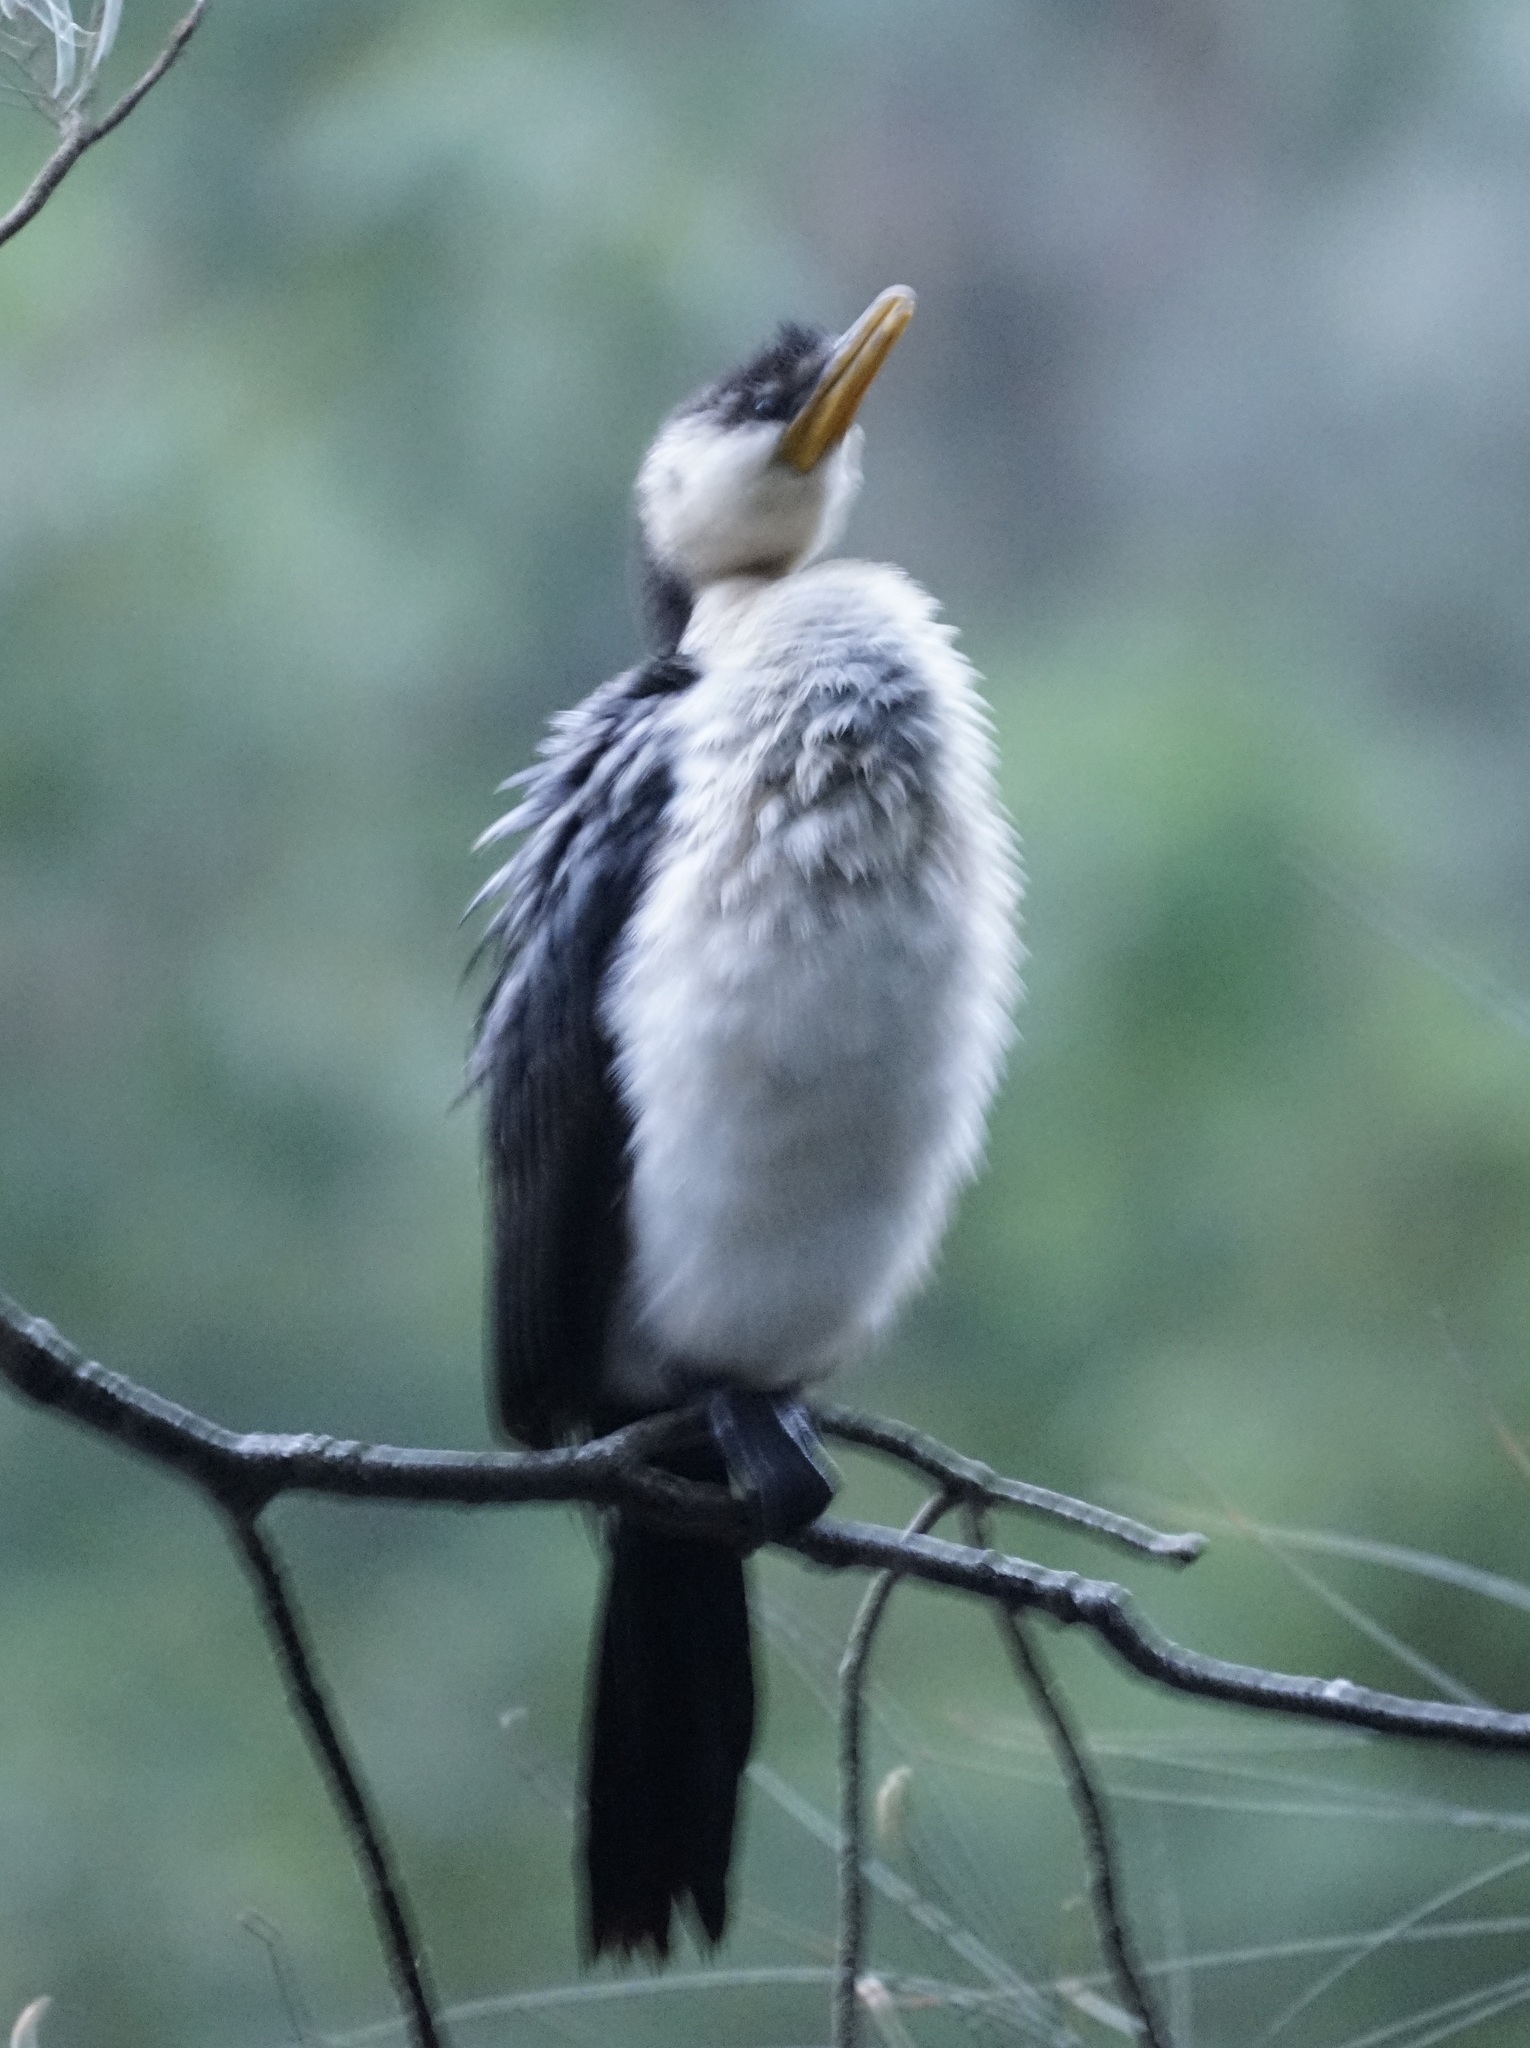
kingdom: Animalia
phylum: Chordata
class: Aves
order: Suliformes
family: Phalacrocoracidae
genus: Microcarbo
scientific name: Microcarbo melanoleucos
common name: Little pied cormorant
